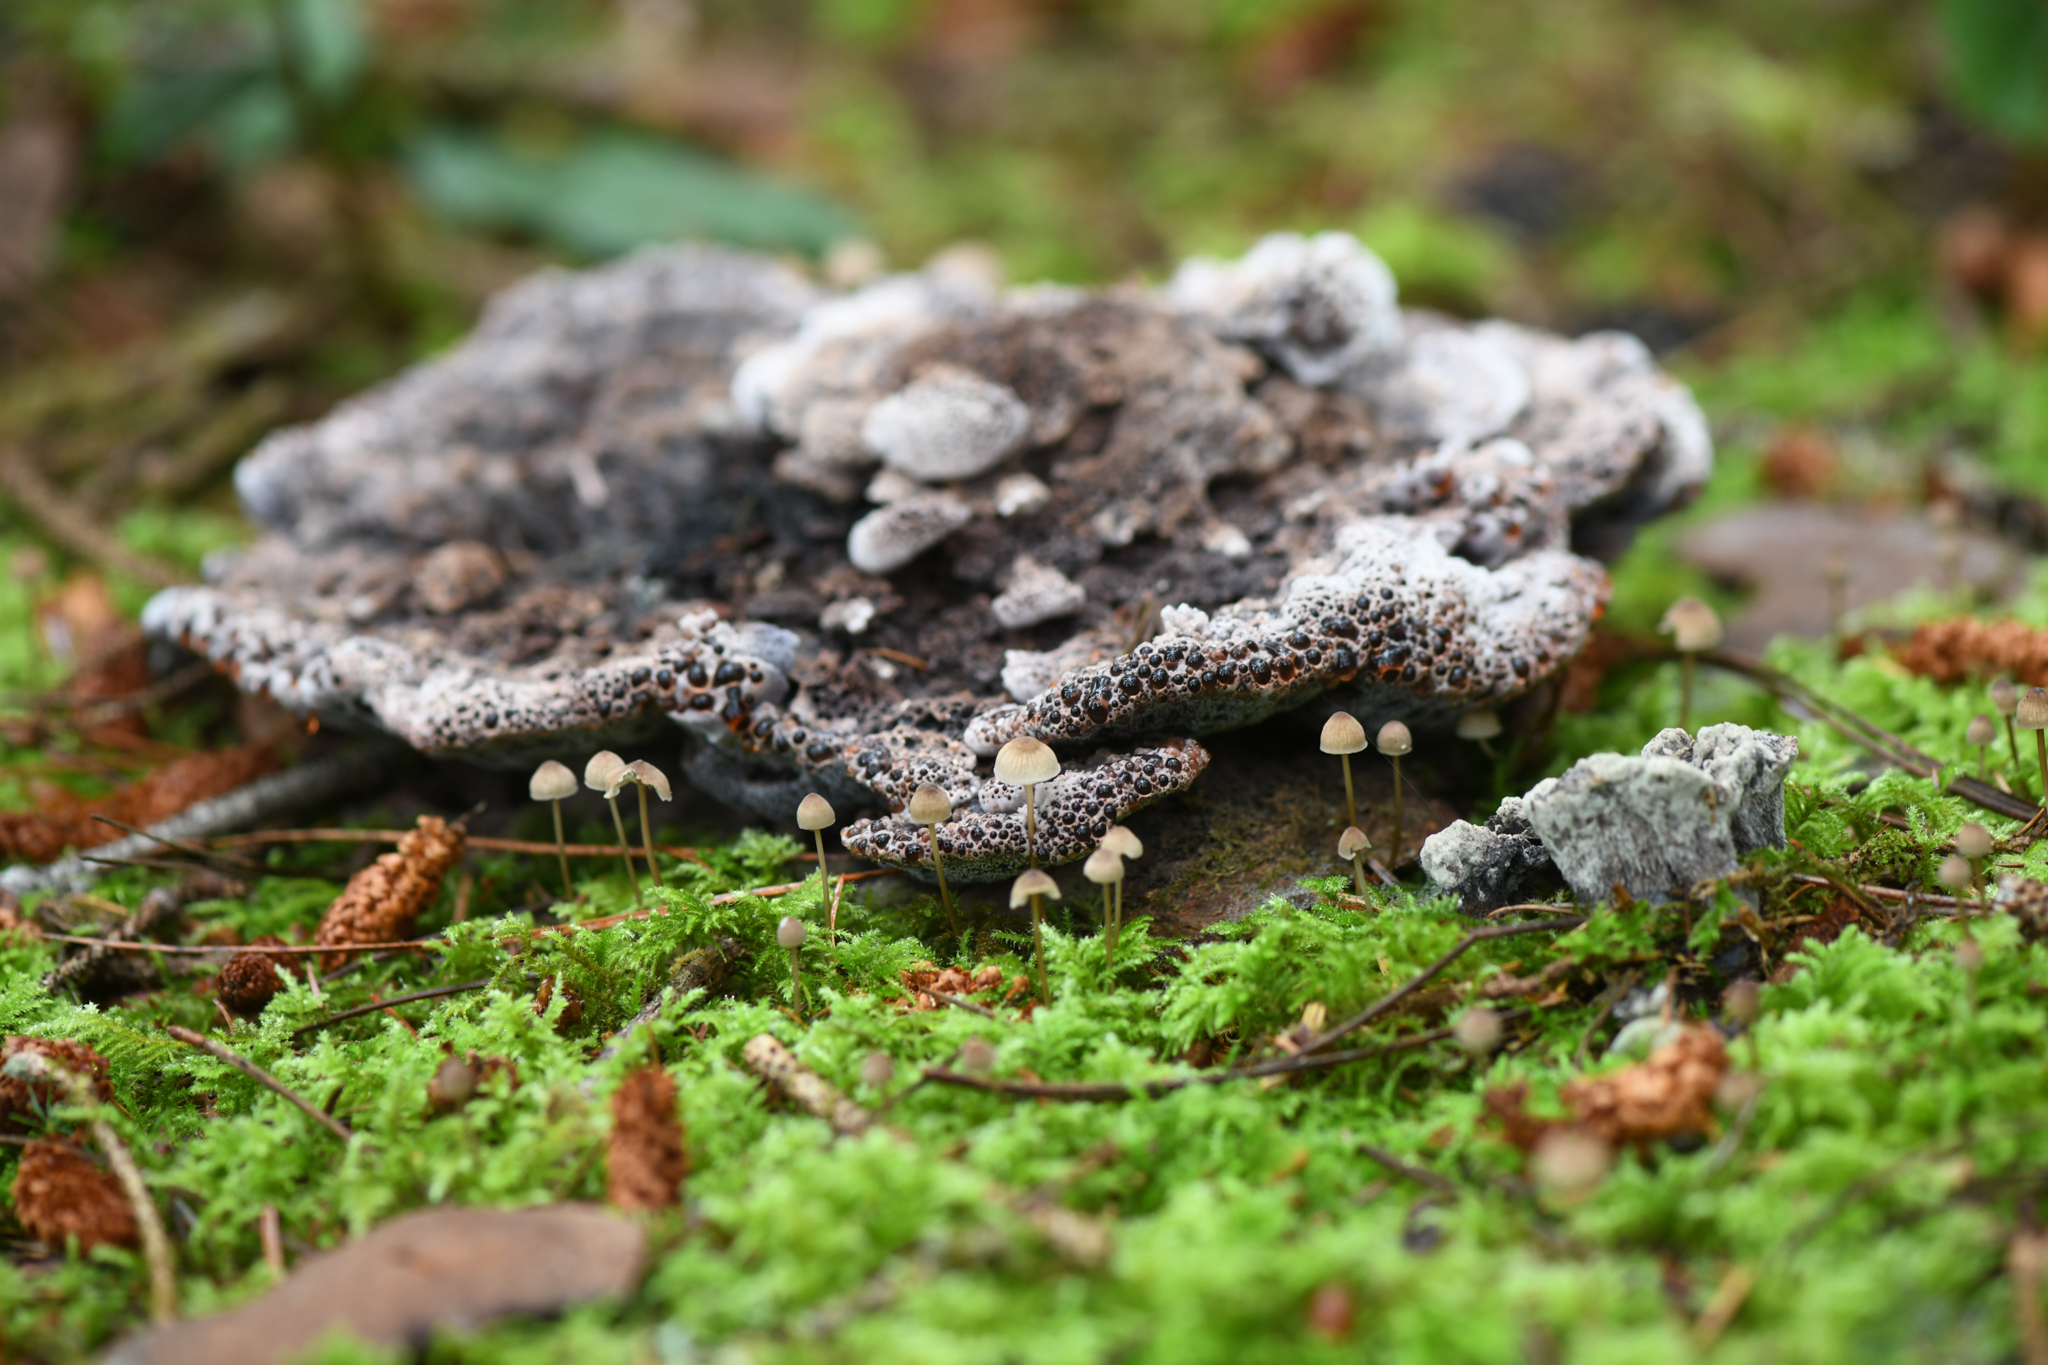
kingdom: Fungi
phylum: Basidiomycota
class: Agaricomycetes
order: Thelephorales
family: Bankeraceae
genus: Hydnellum
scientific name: Hydnellum cyanopodium
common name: Bleeding blue tooth
